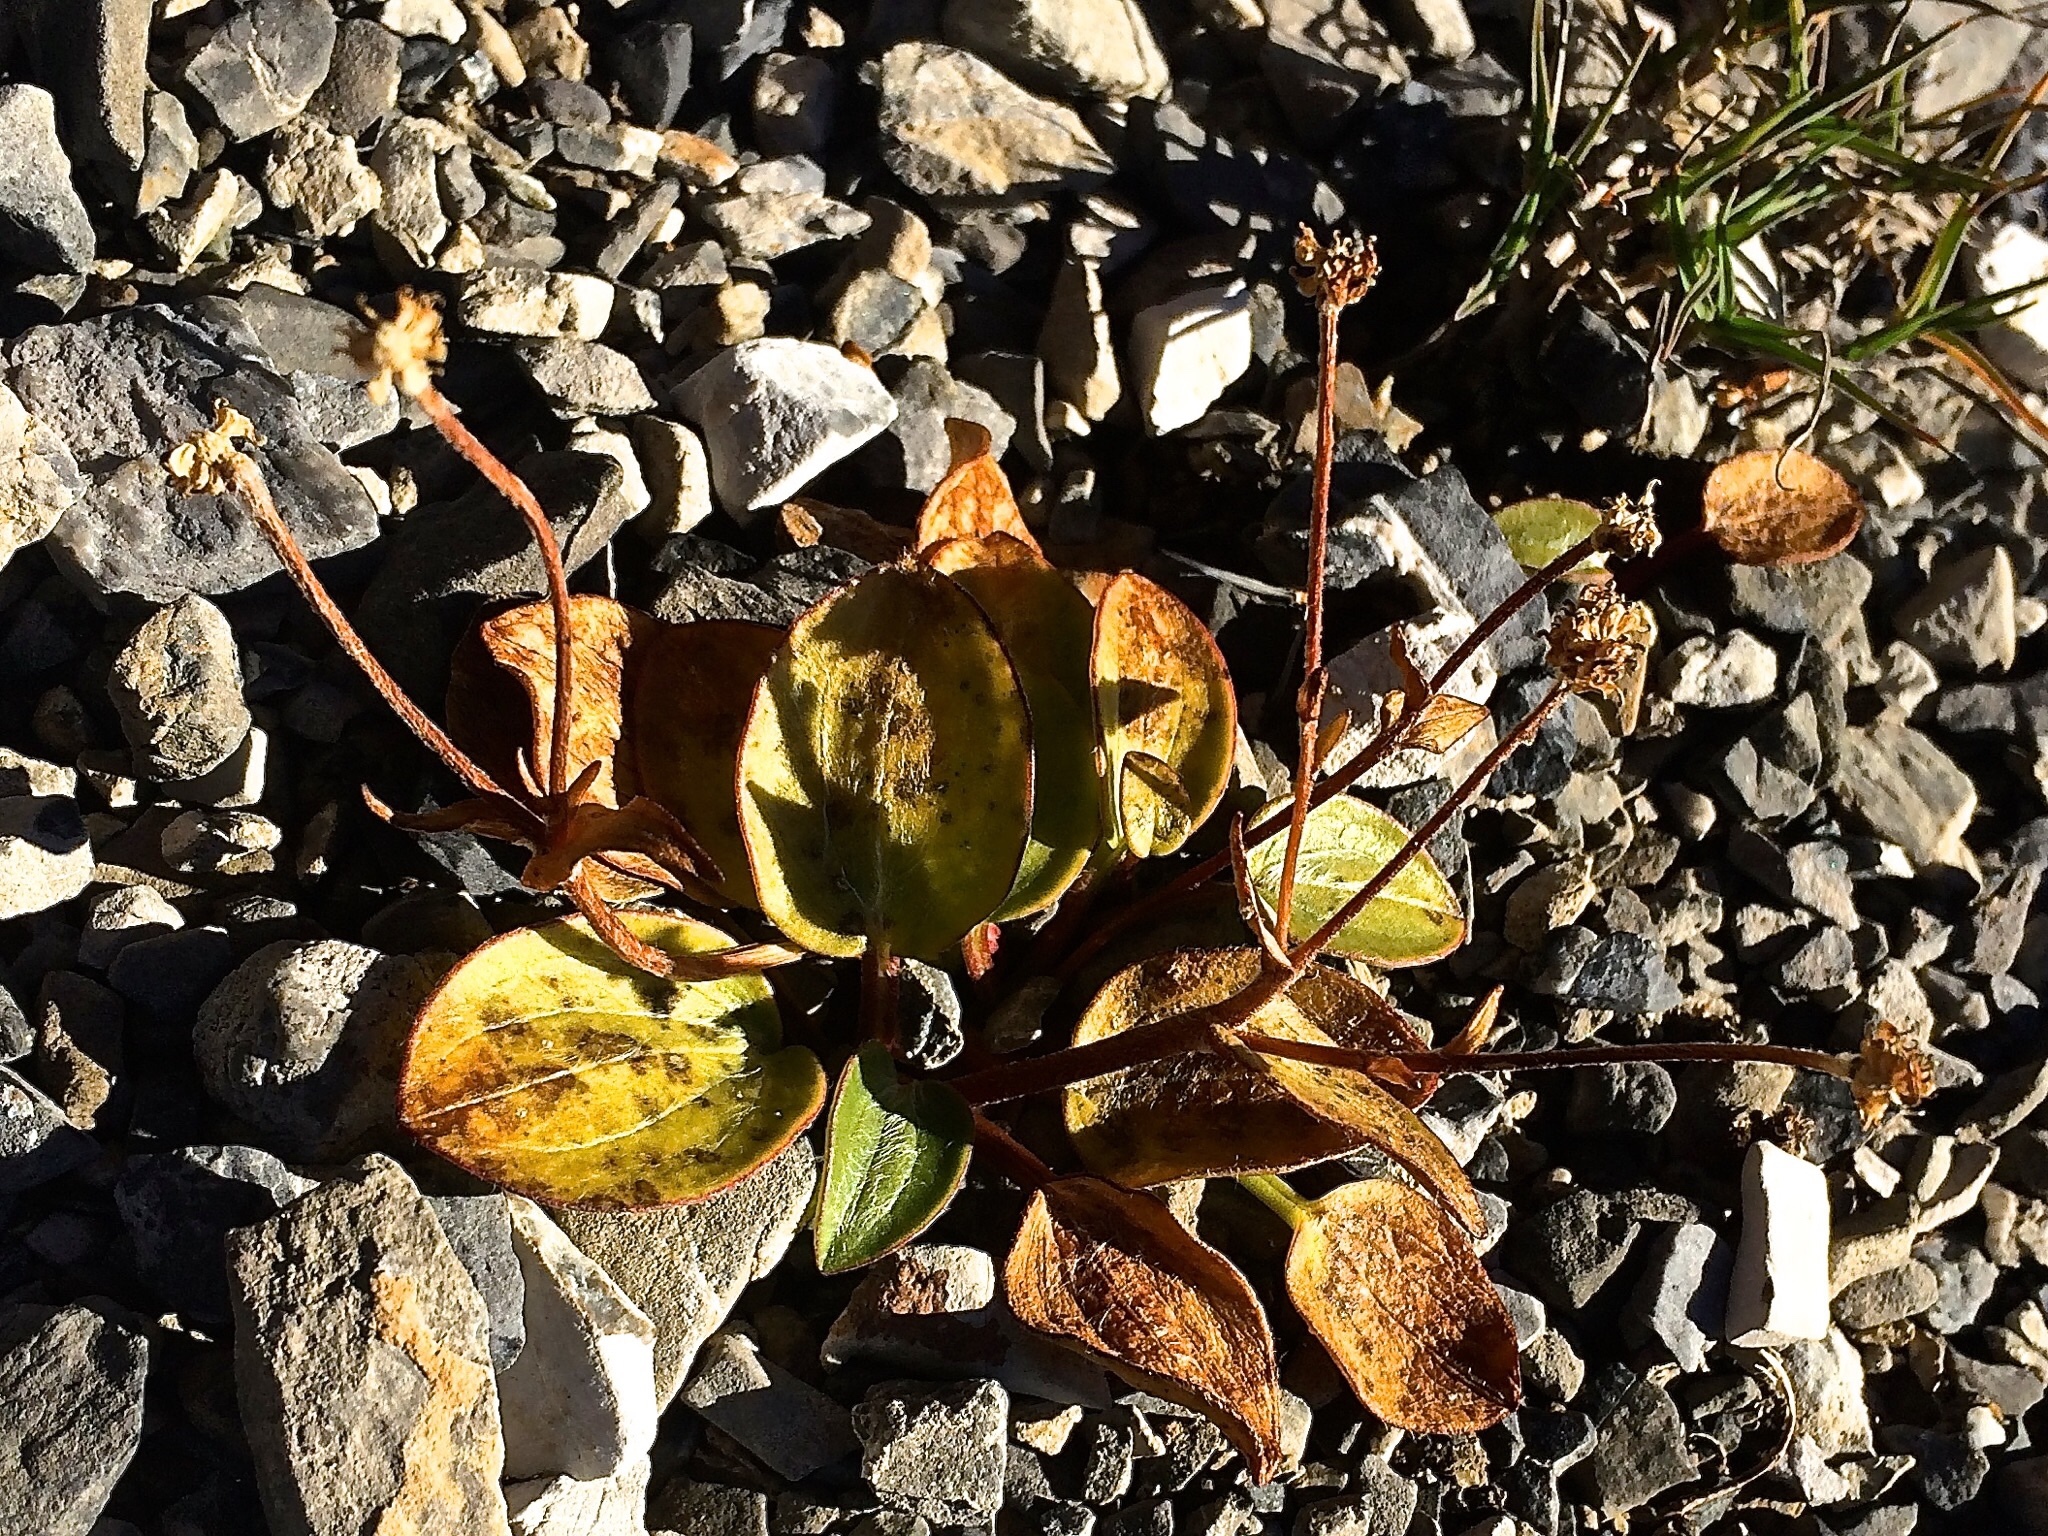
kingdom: Plantae
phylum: Tracheophyta
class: Magnoliopsida
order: Ranunculales
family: Ranunculaceae
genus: Ranunculus
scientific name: Ranunculus parnassiifolius
